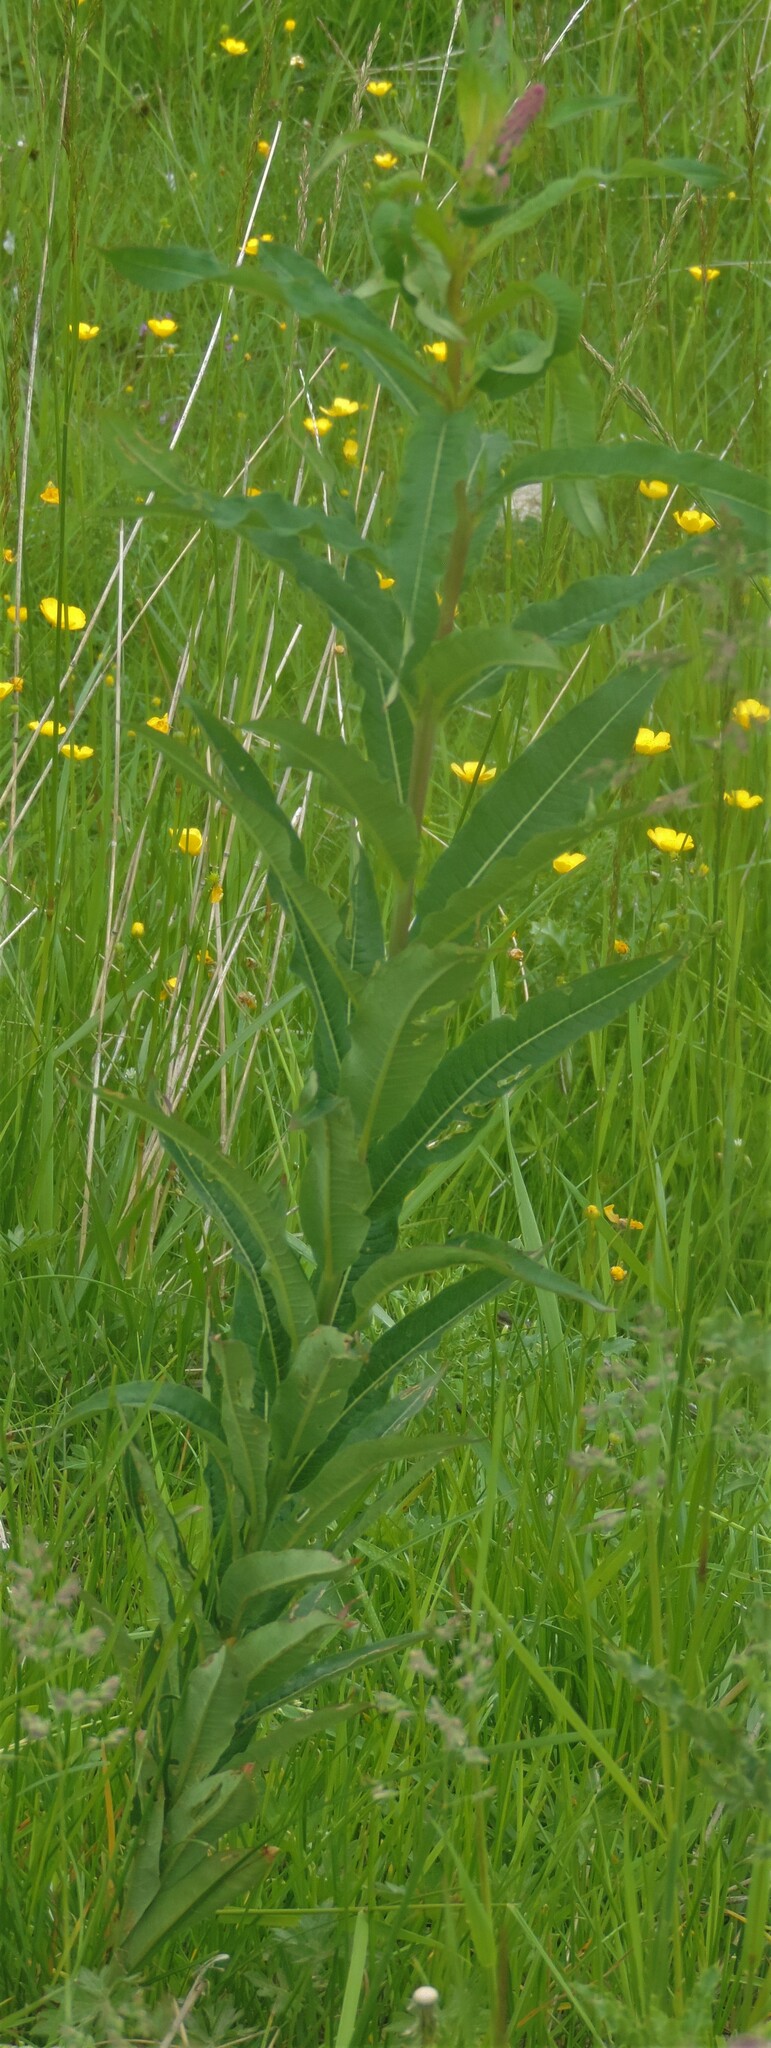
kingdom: Plantae
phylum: Tracheophyta
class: Magnoliopsida
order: Myrtales
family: Onagraceae
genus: Chamaenerion
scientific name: Chamaenerion angustifolium
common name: Fireweed
